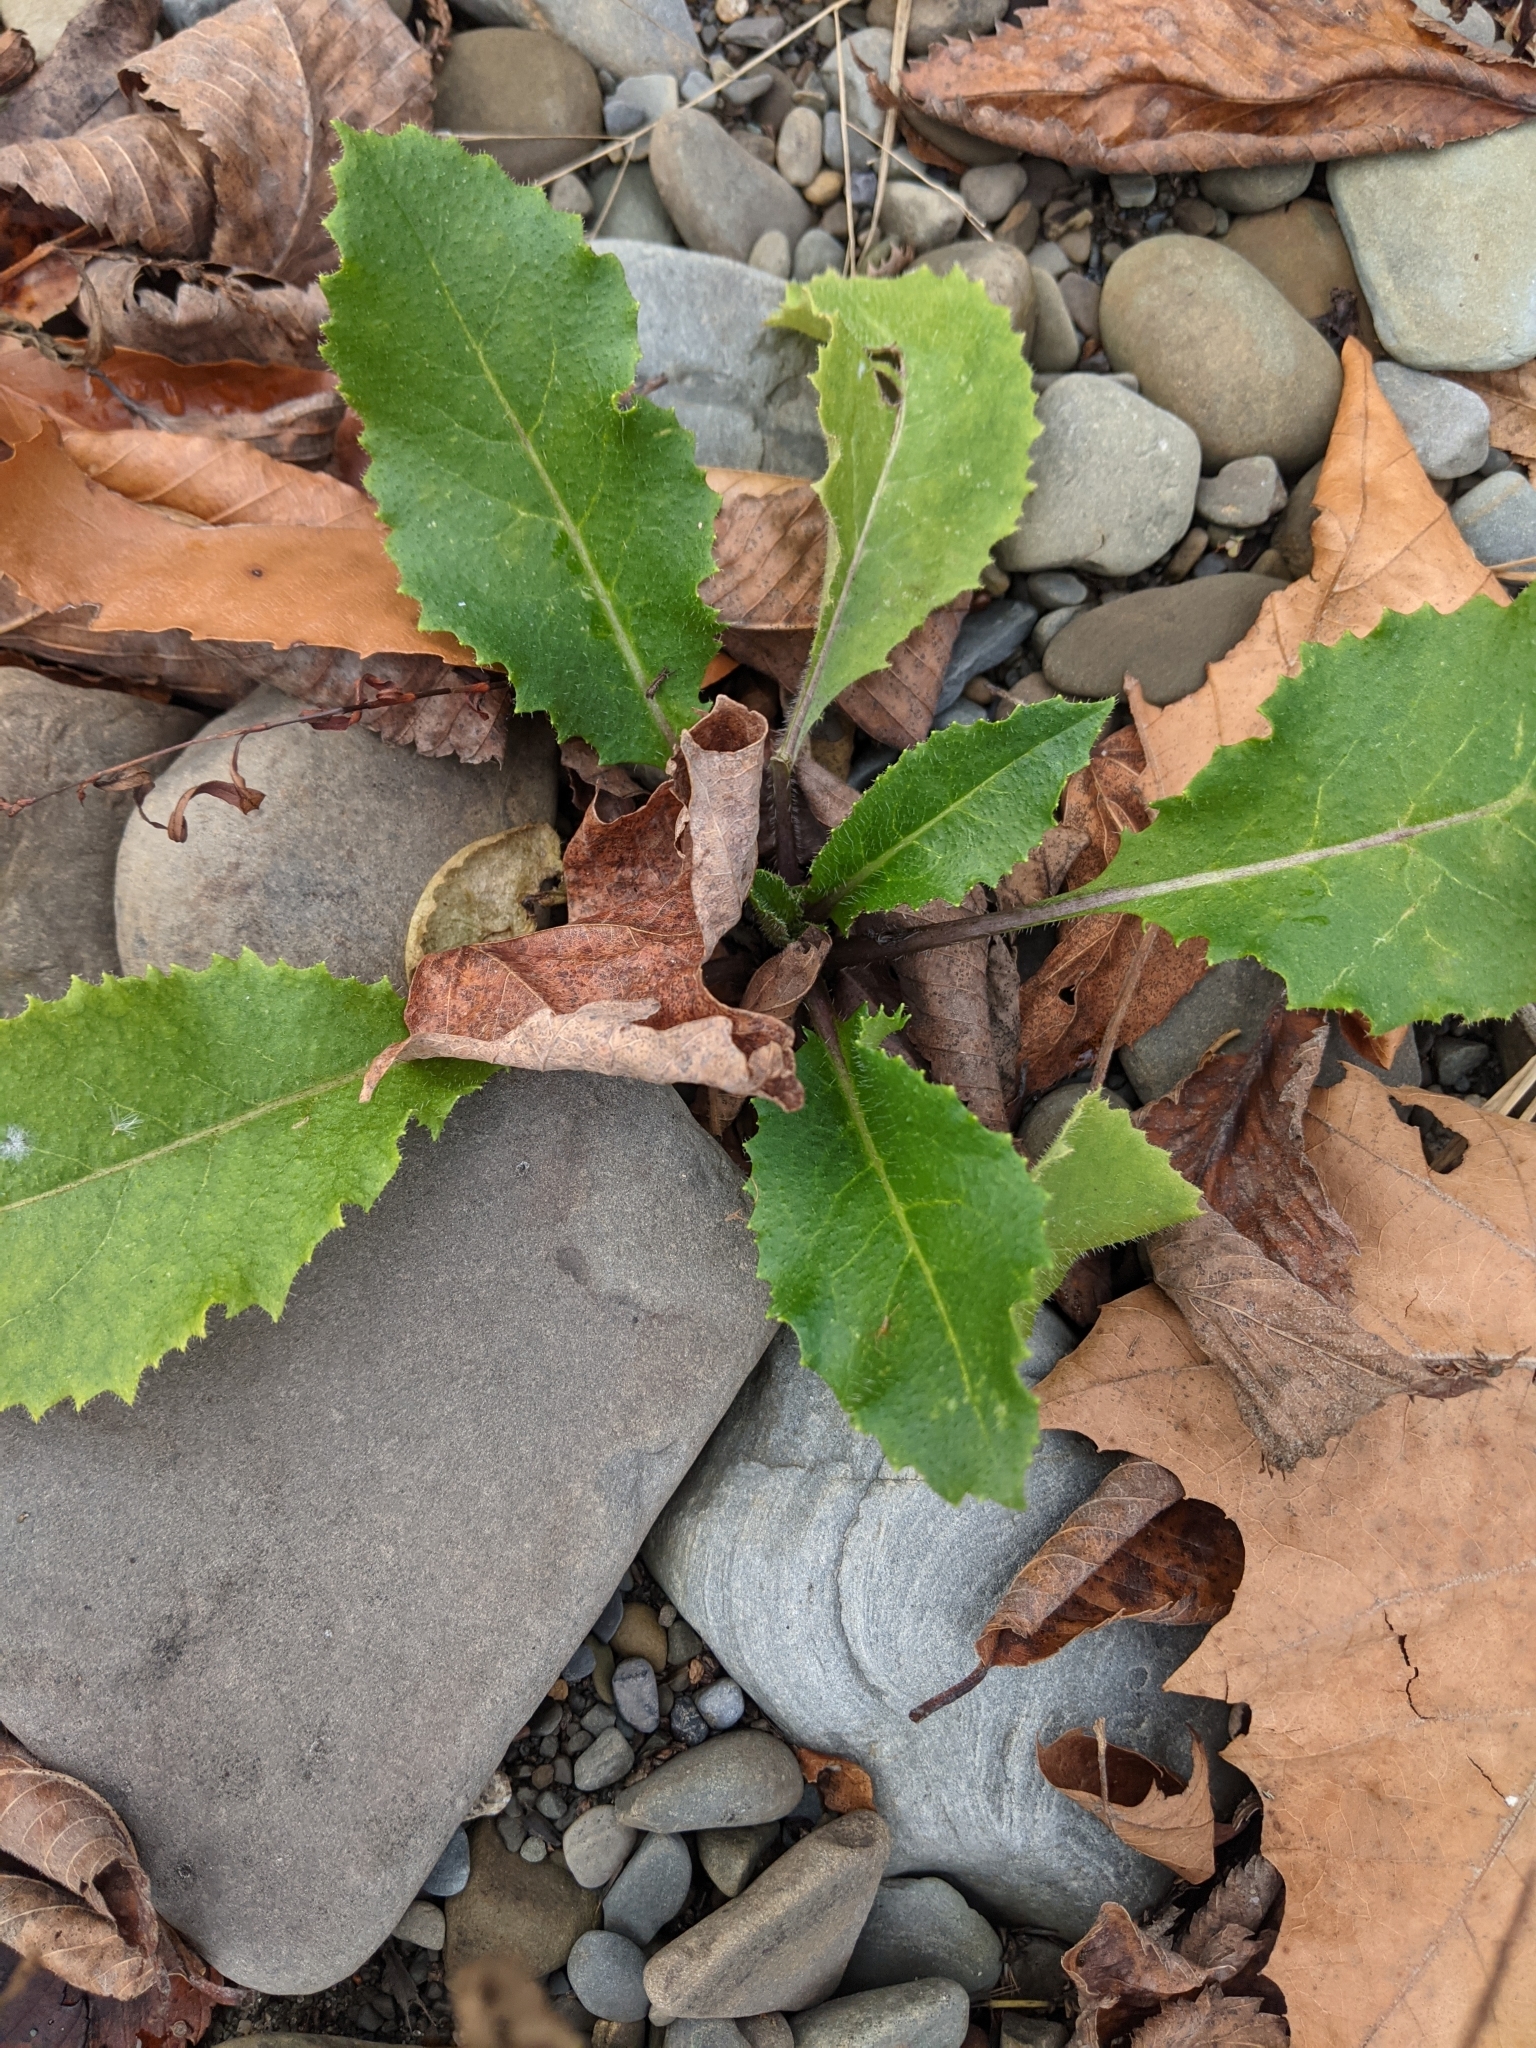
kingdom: Plantae
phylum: Tracheophyta
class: Magnoliopsida
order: Asterales
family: Asteraceae
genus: Picris
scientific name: Picris hieracioides
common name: Hawkweed oxtongue
